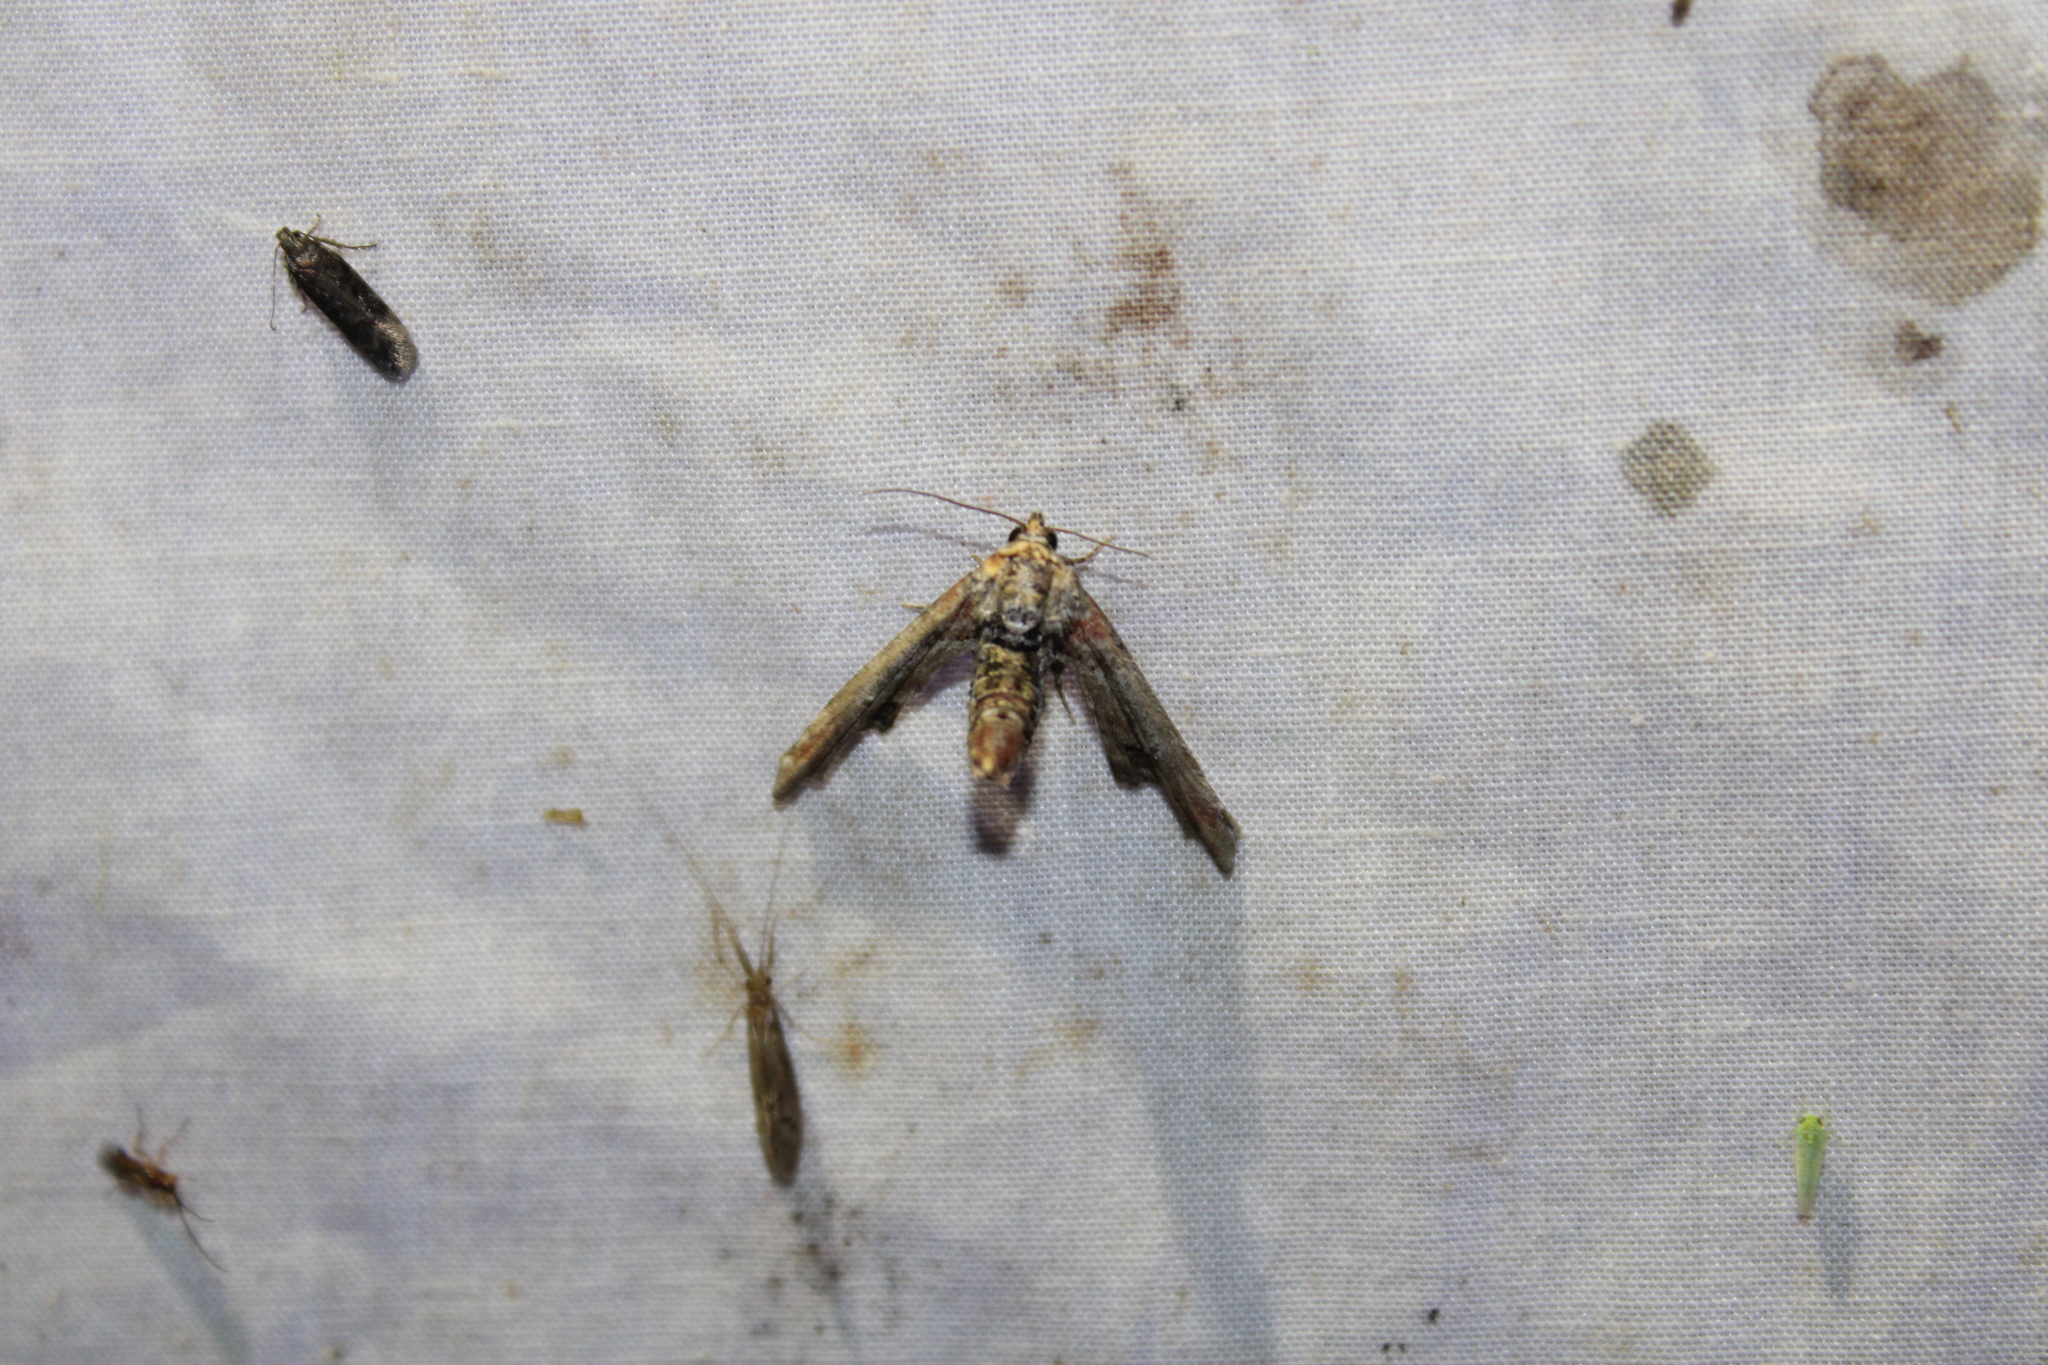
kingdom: Animalia
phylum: Arthropoda
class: Insecta
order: Lepidoptera
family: Euteliidae
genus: Marathyssa
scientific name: Marathyssa inficita
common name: Dark marathyssa moth
